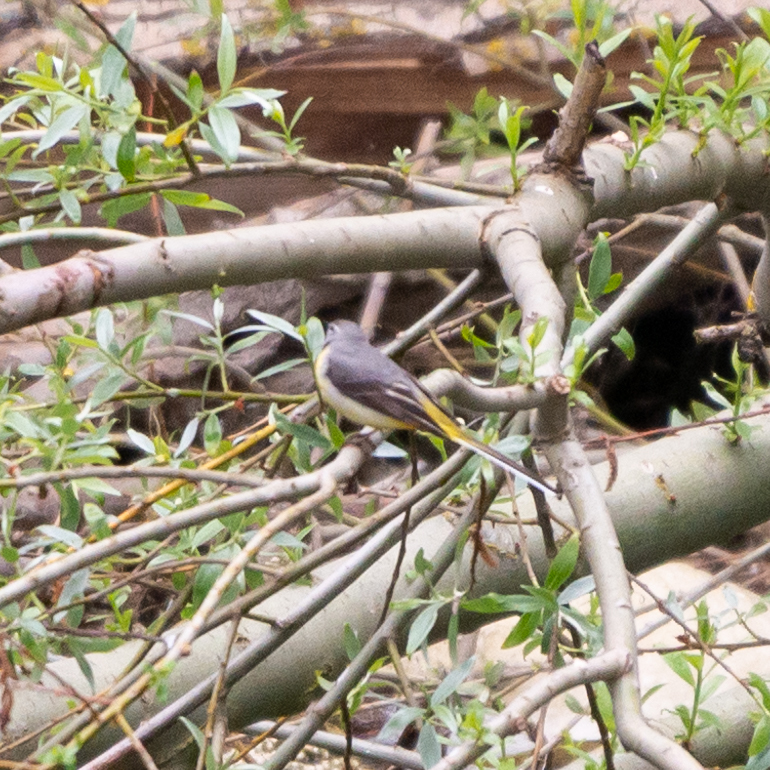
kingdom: Animalia
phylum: Chordata
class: Aves
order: Passeriformes
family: Motacillidae
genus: Motacilla
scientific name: Motacilla cinerea
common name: Grey wagtail
